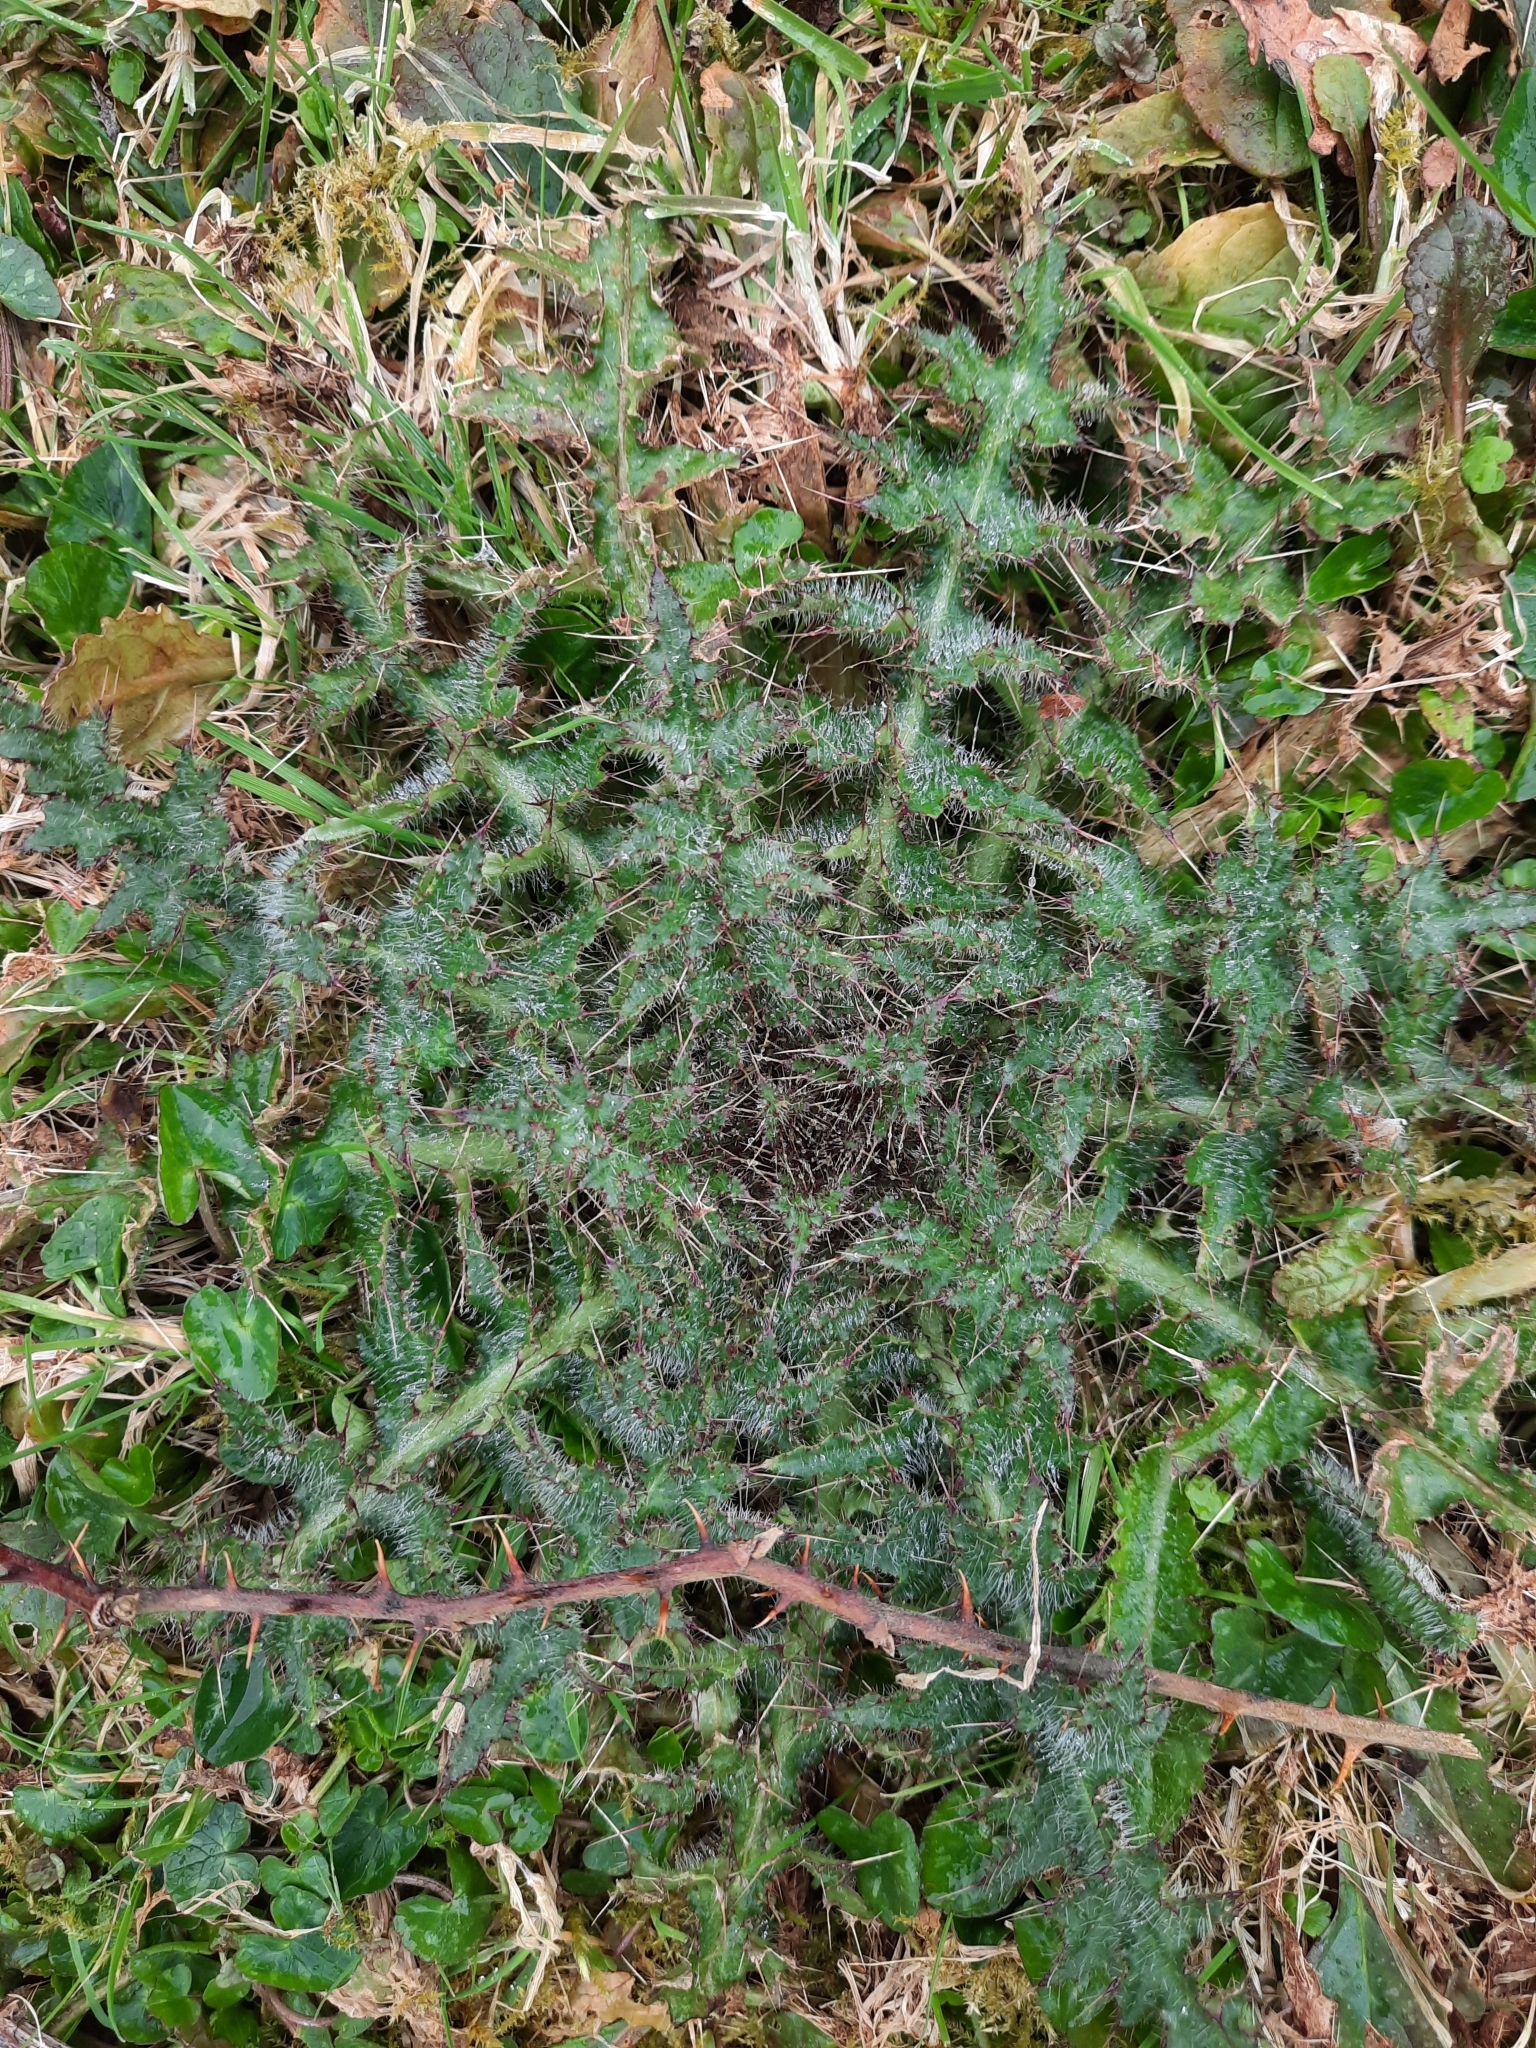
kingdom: Plantae
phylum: Tracheophyta
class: Magnoliopsida
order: Asterales
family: Asteraceae
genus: Cirsium
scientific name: Cirsium palustre
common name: Marsh thistle
